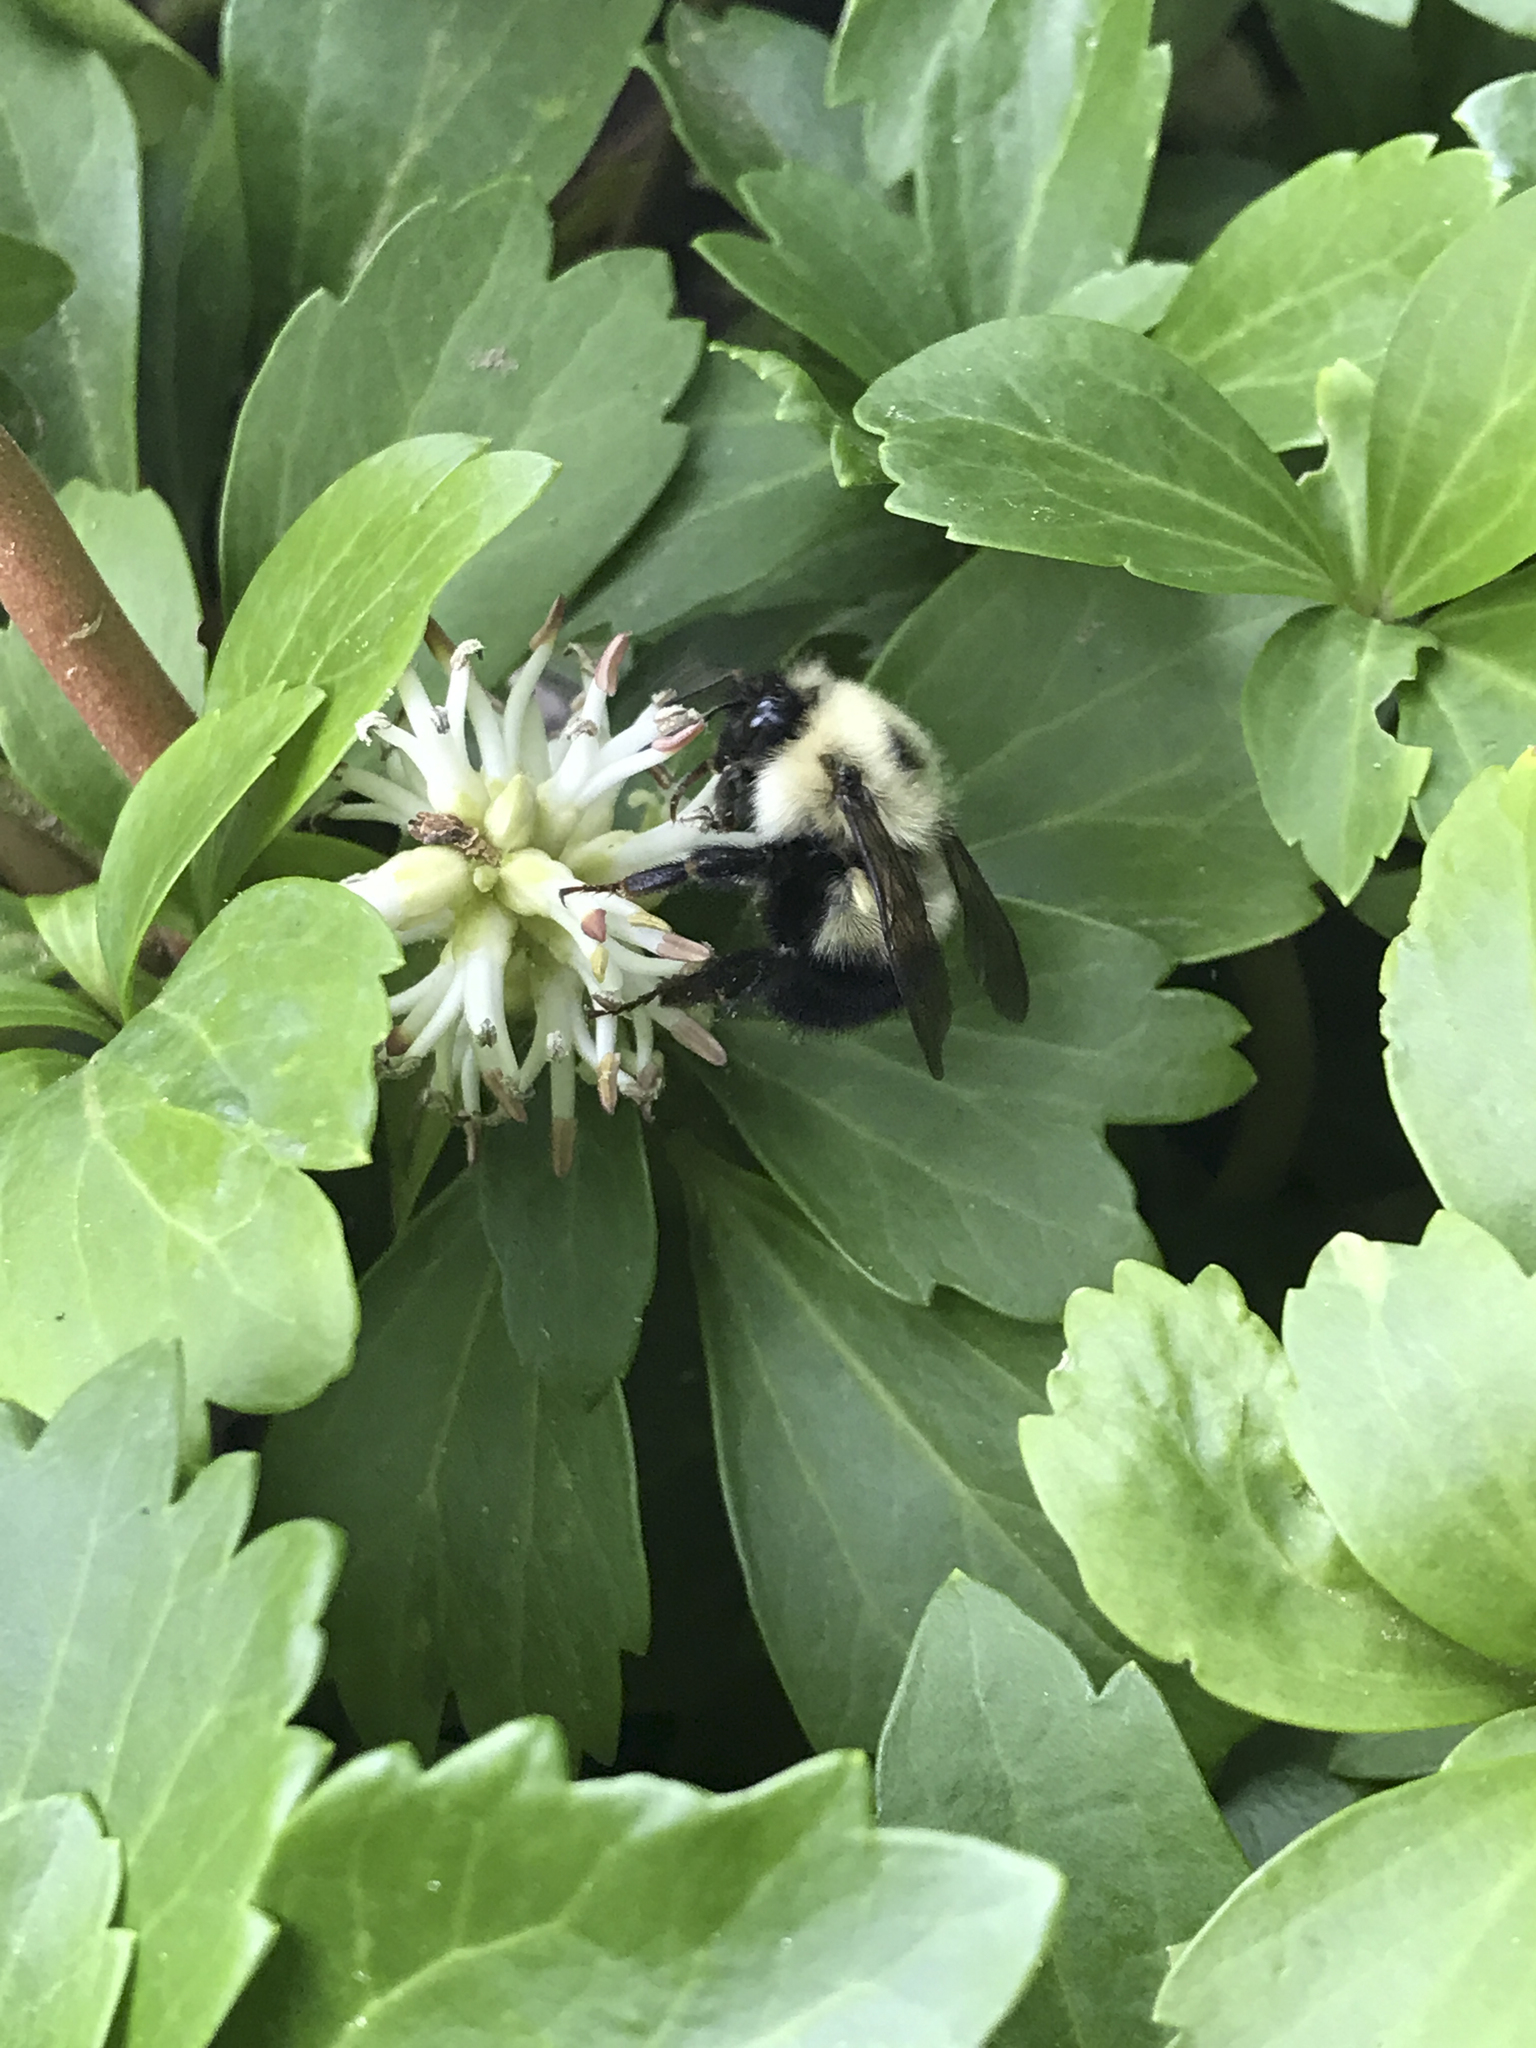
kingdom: Animalia
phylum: Arthropoda
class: Insecta
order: Hymenoptera
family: Apidae
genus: Pyrobombus
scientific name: Pyrobombus
